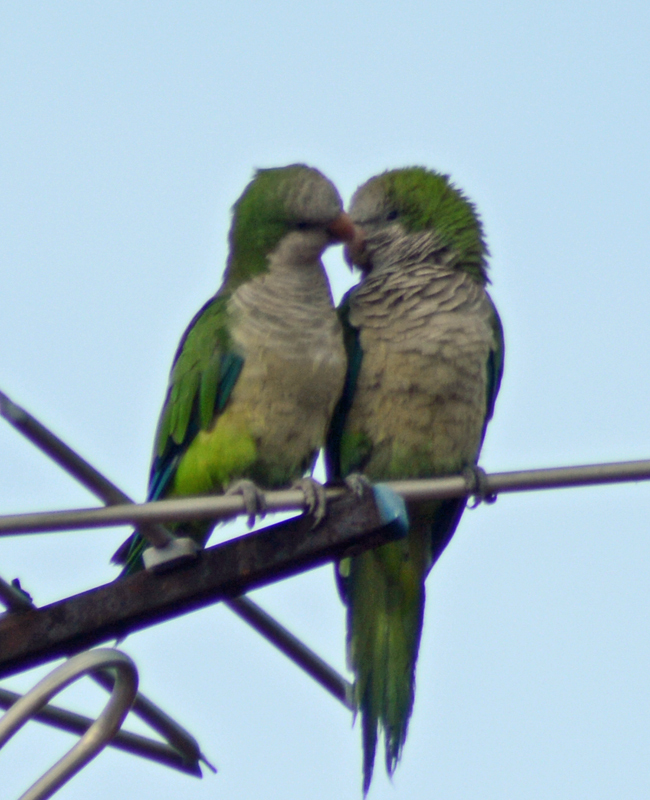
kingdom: Animalia
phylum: Chordata
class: Aves
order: Psittaciformes
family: Psittacidae
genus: Myiopsitta
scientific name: Myiopsitta monachus
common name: Monk parakeet
